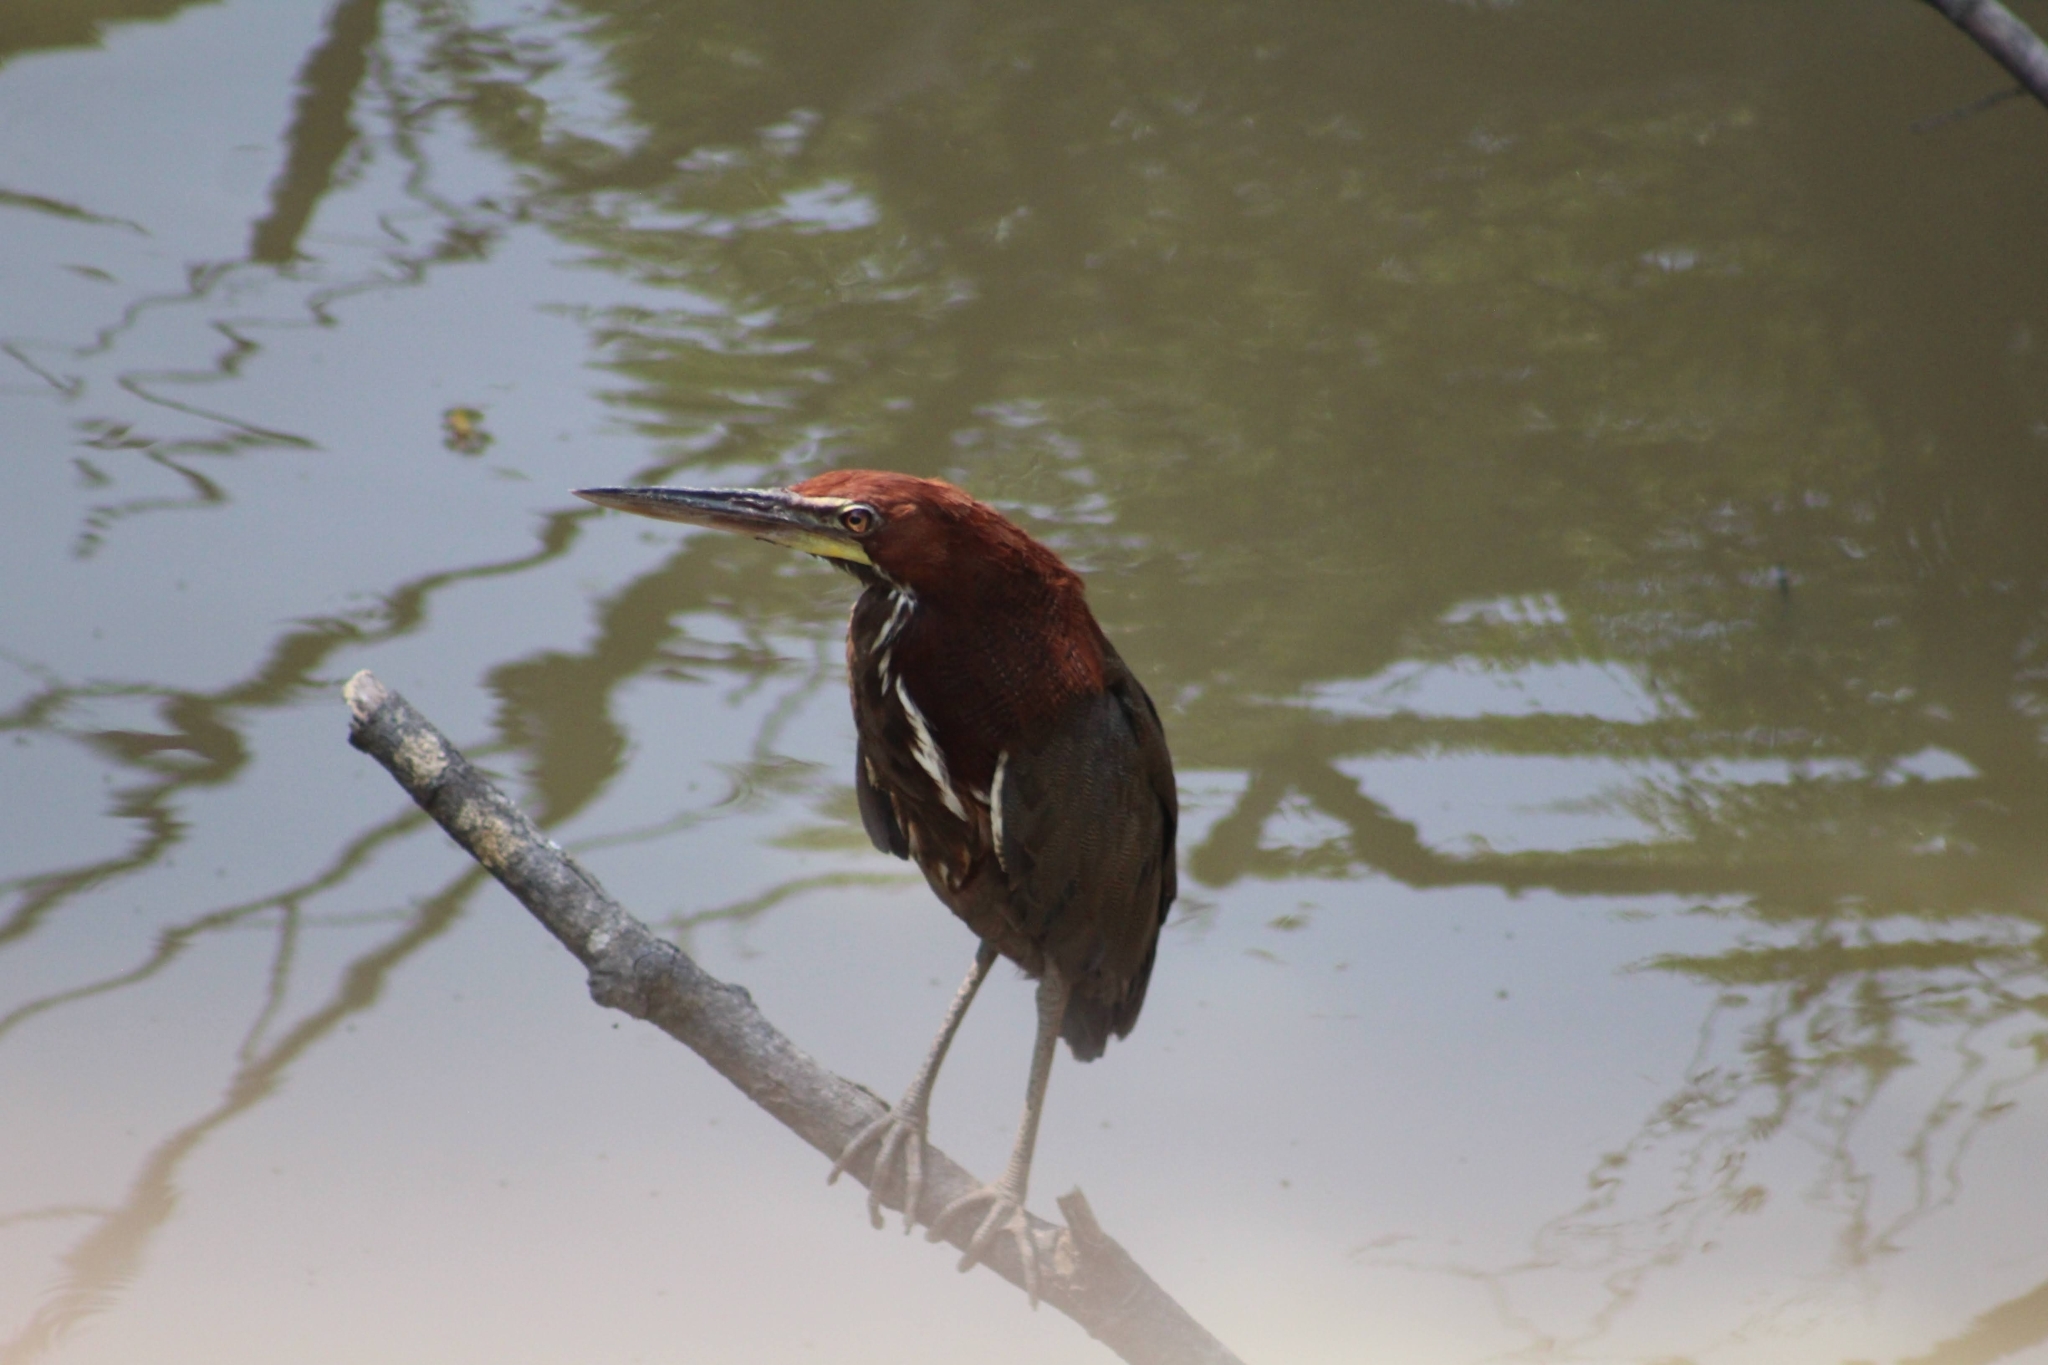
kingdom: Animalia
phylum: Chordata
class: Aves
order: Pelecaniformes
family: Ardeidae
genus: Tigrisoma
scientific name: Tigrisoma lineatum
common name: Rufescent tiger-heron
